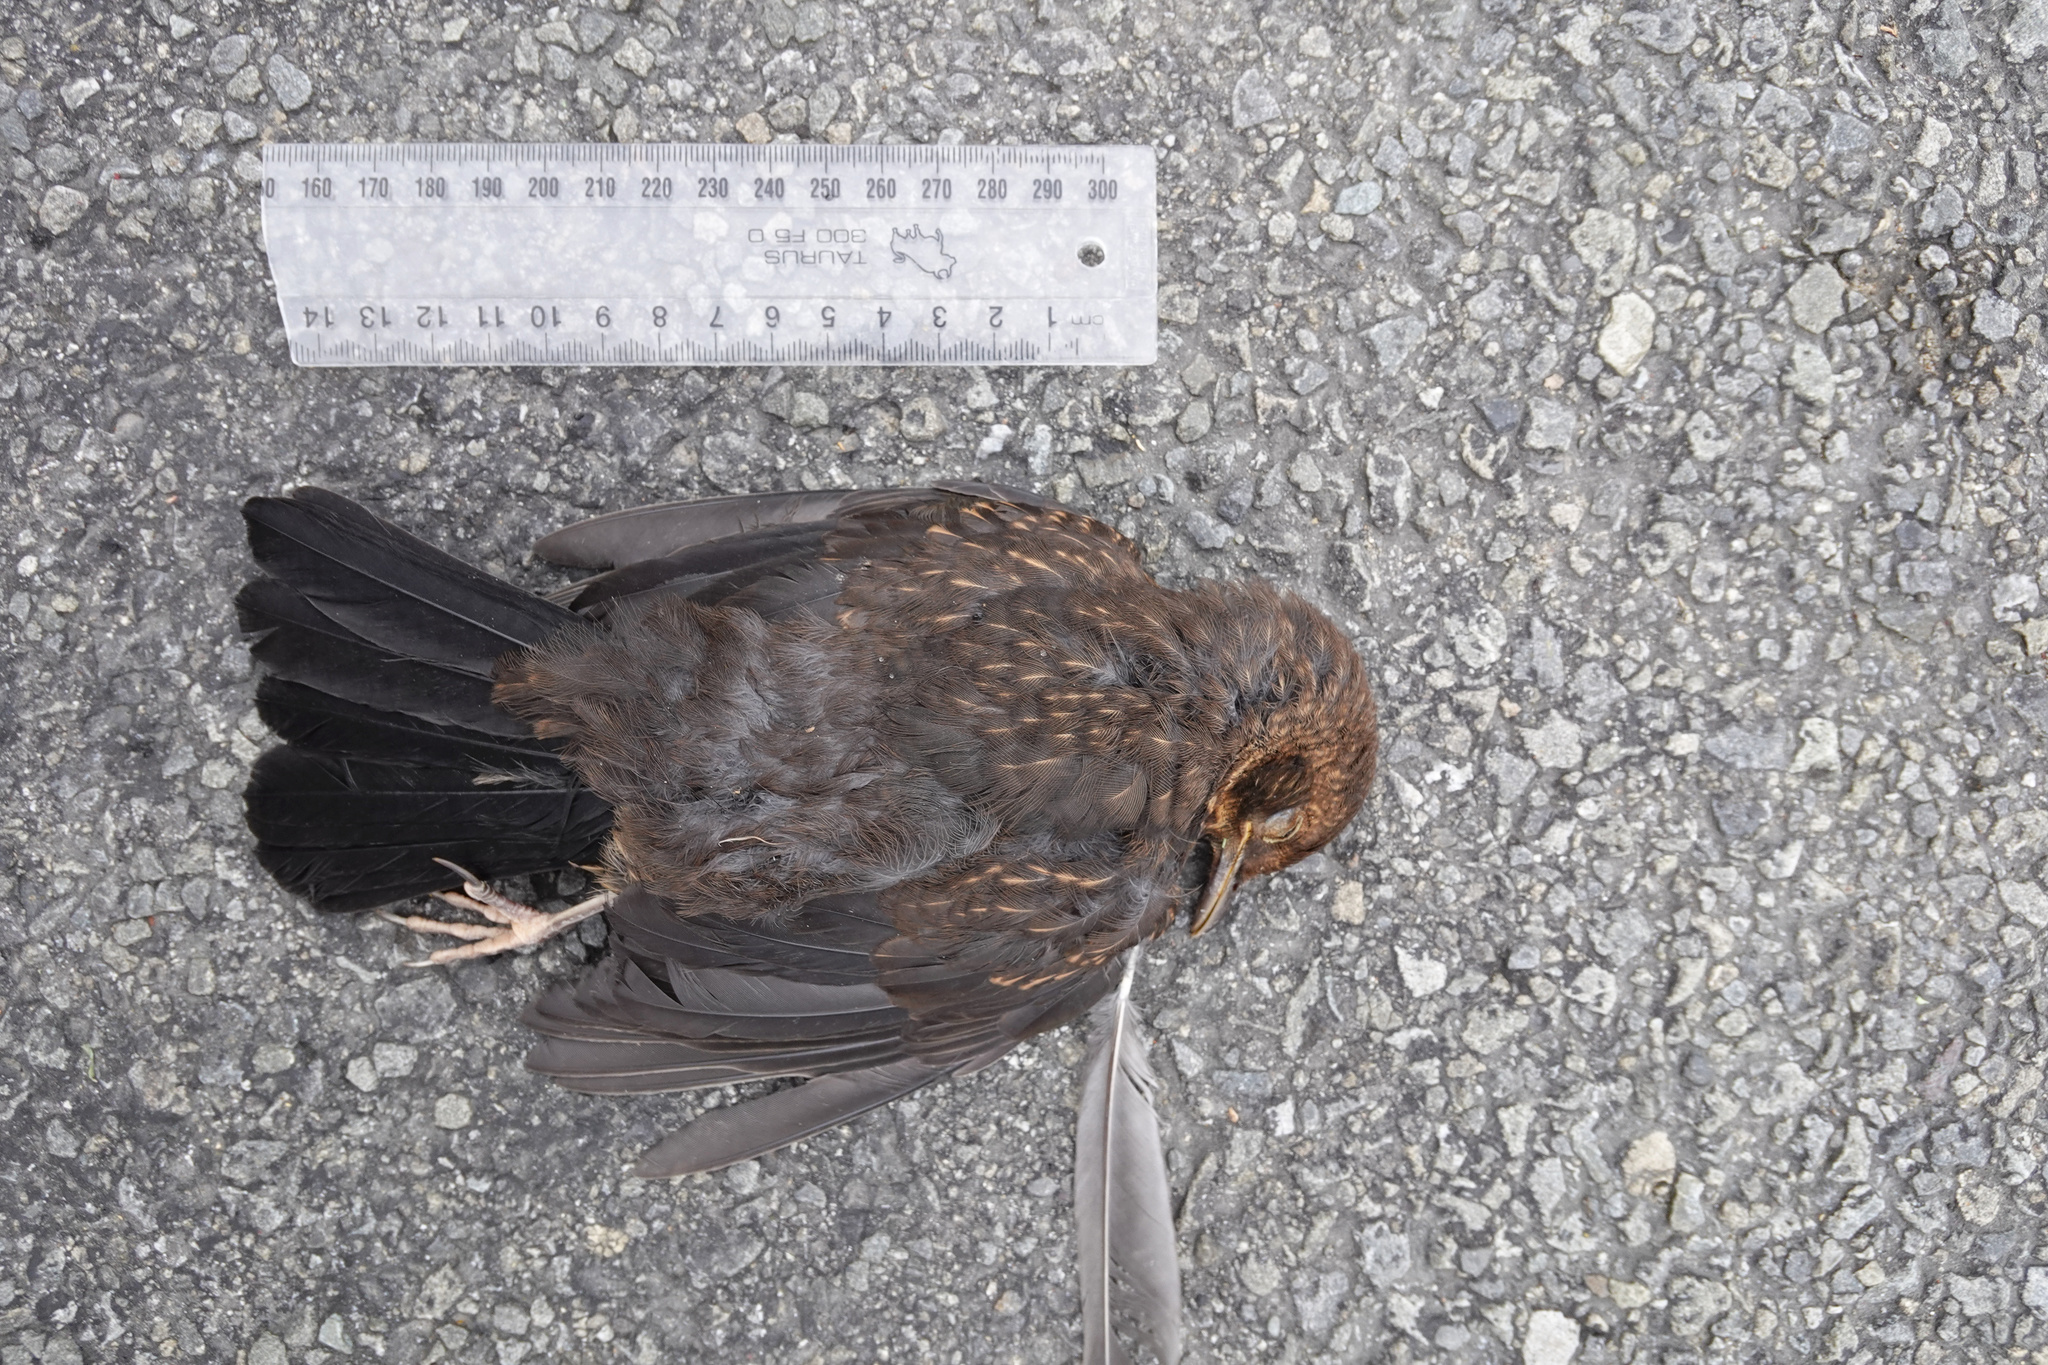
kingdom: Animalia
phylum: Chordata
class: Aves
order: Passeriformes
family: Turdidae
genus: Turdus
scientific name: Turdus merula
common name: Common blackbird
